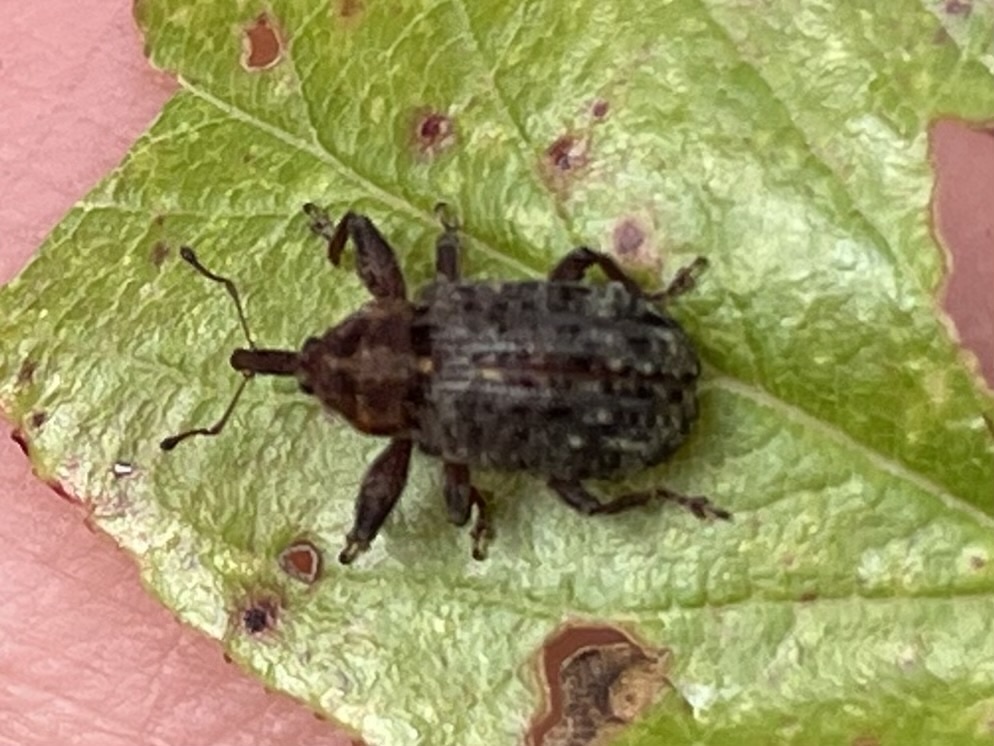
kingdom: Animalia
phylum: Arthropoda
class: Insecta
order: Coleoptera
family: Curculionidae
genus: Corthylus
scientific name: Corthylus scutellaris
